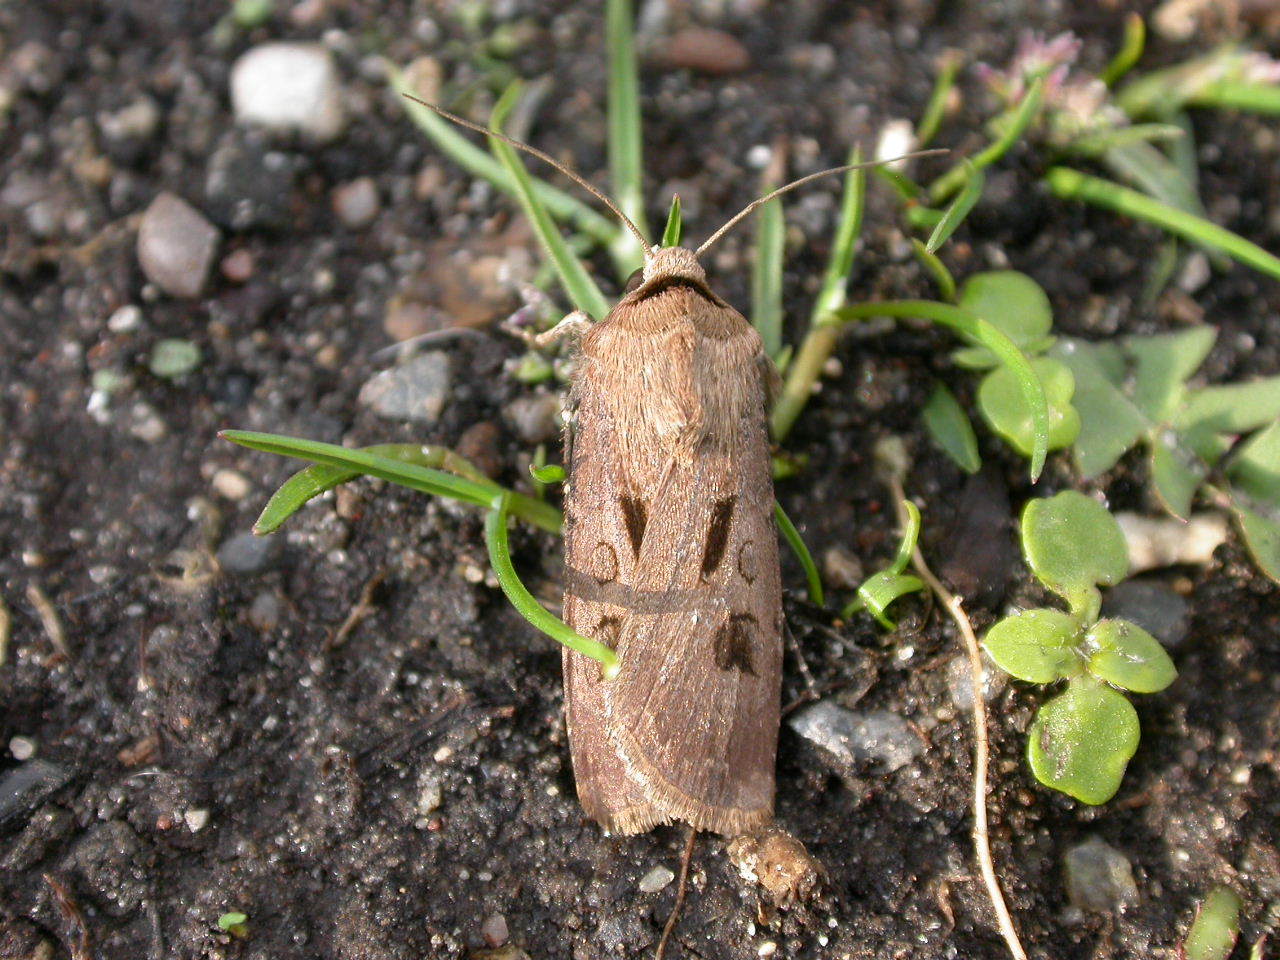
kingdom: Animalia
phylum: Arthropoda
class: Insecta
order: Lepidoptera
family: Noctuidae
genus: Agrotis
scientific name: Agrotis exclamationis
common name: Heart and dart
